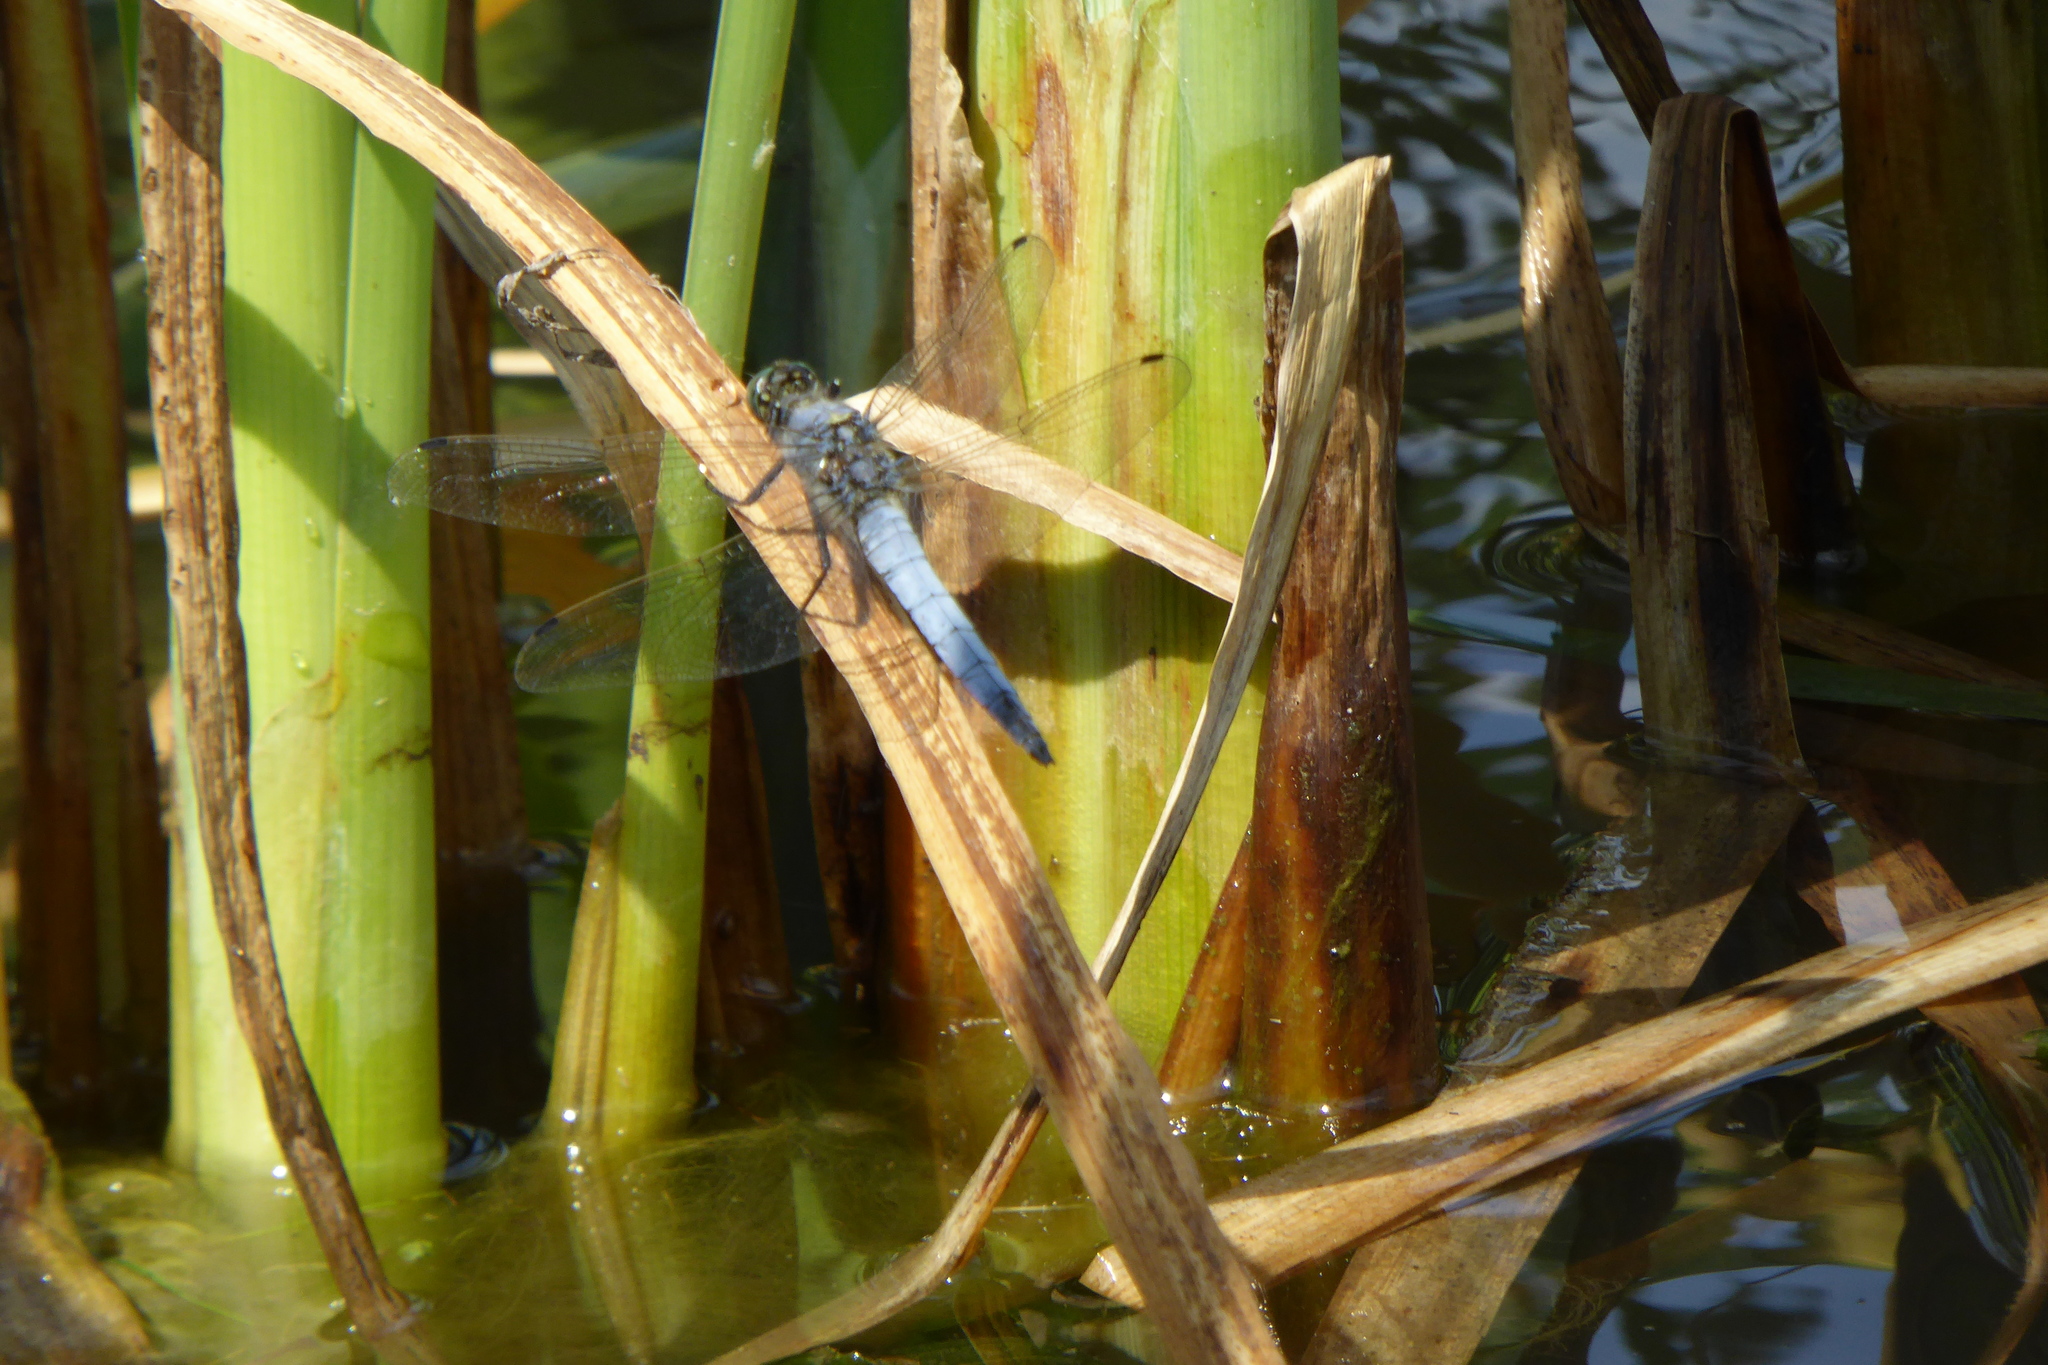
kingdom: Animalia
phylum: Arthropoda
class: Insecta
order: Odonata
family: Libellulidae
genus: Orthetrum
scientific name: Orthetrum cancellatum
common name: Black-tailed skimmer
